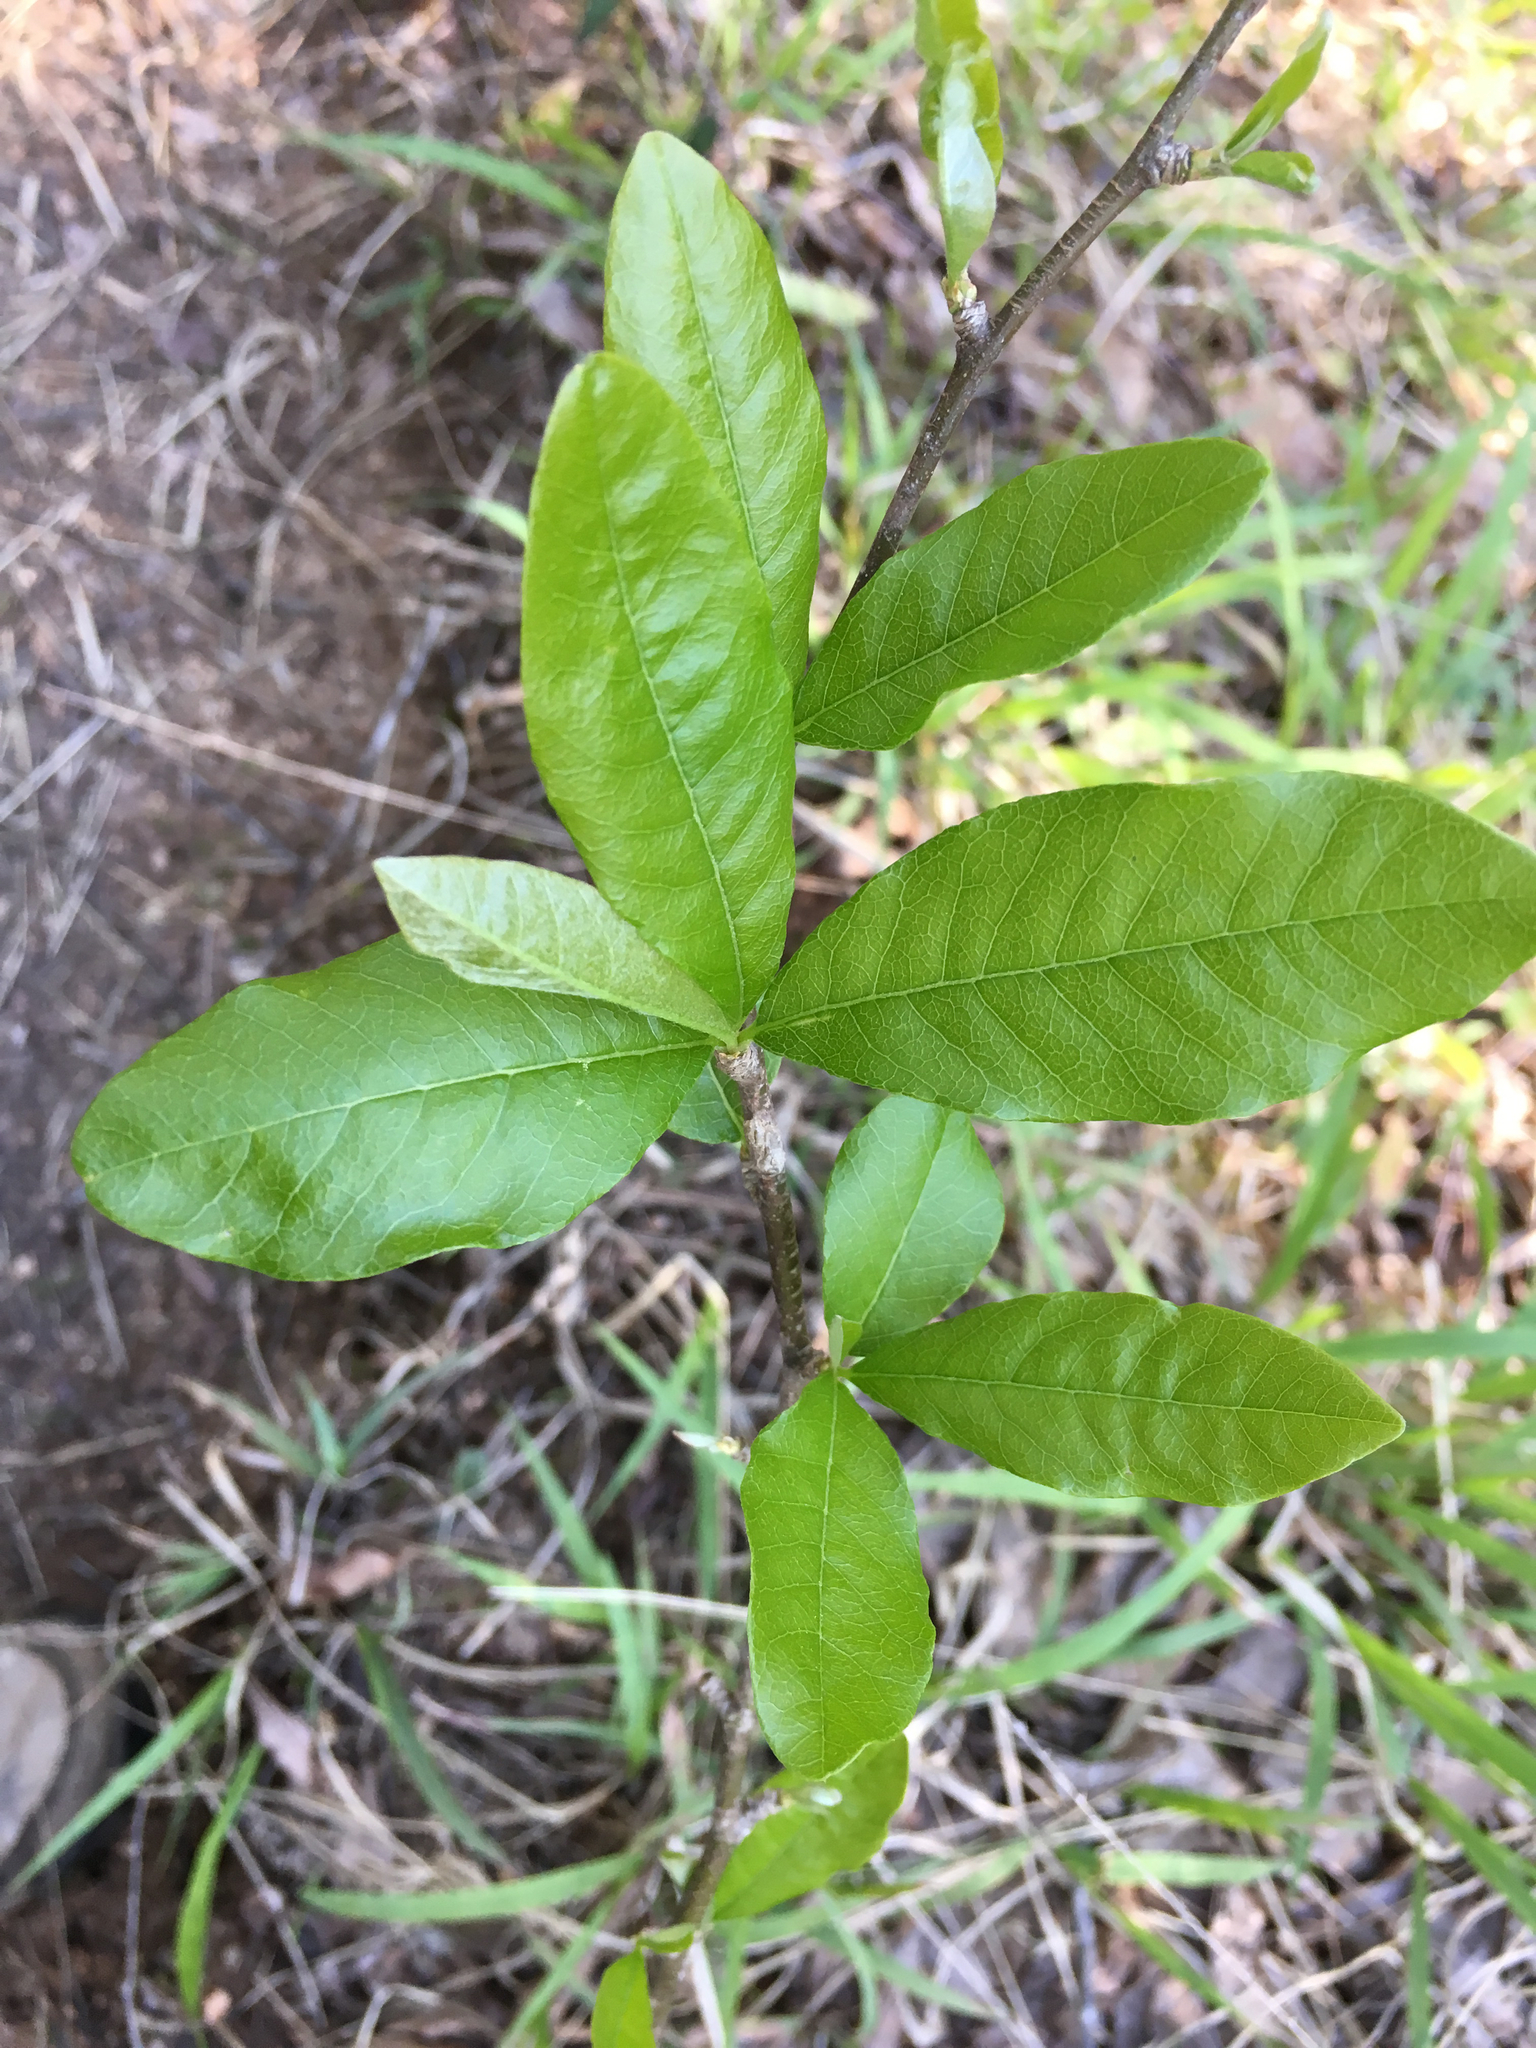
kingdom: Plantae
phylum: Tracheophyta
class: Magnoliopsida
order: Ericales
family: Sapotaceae
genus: Sideroxylon
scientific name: Sideroxylon lycioides
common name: Buckthorn bumelia
